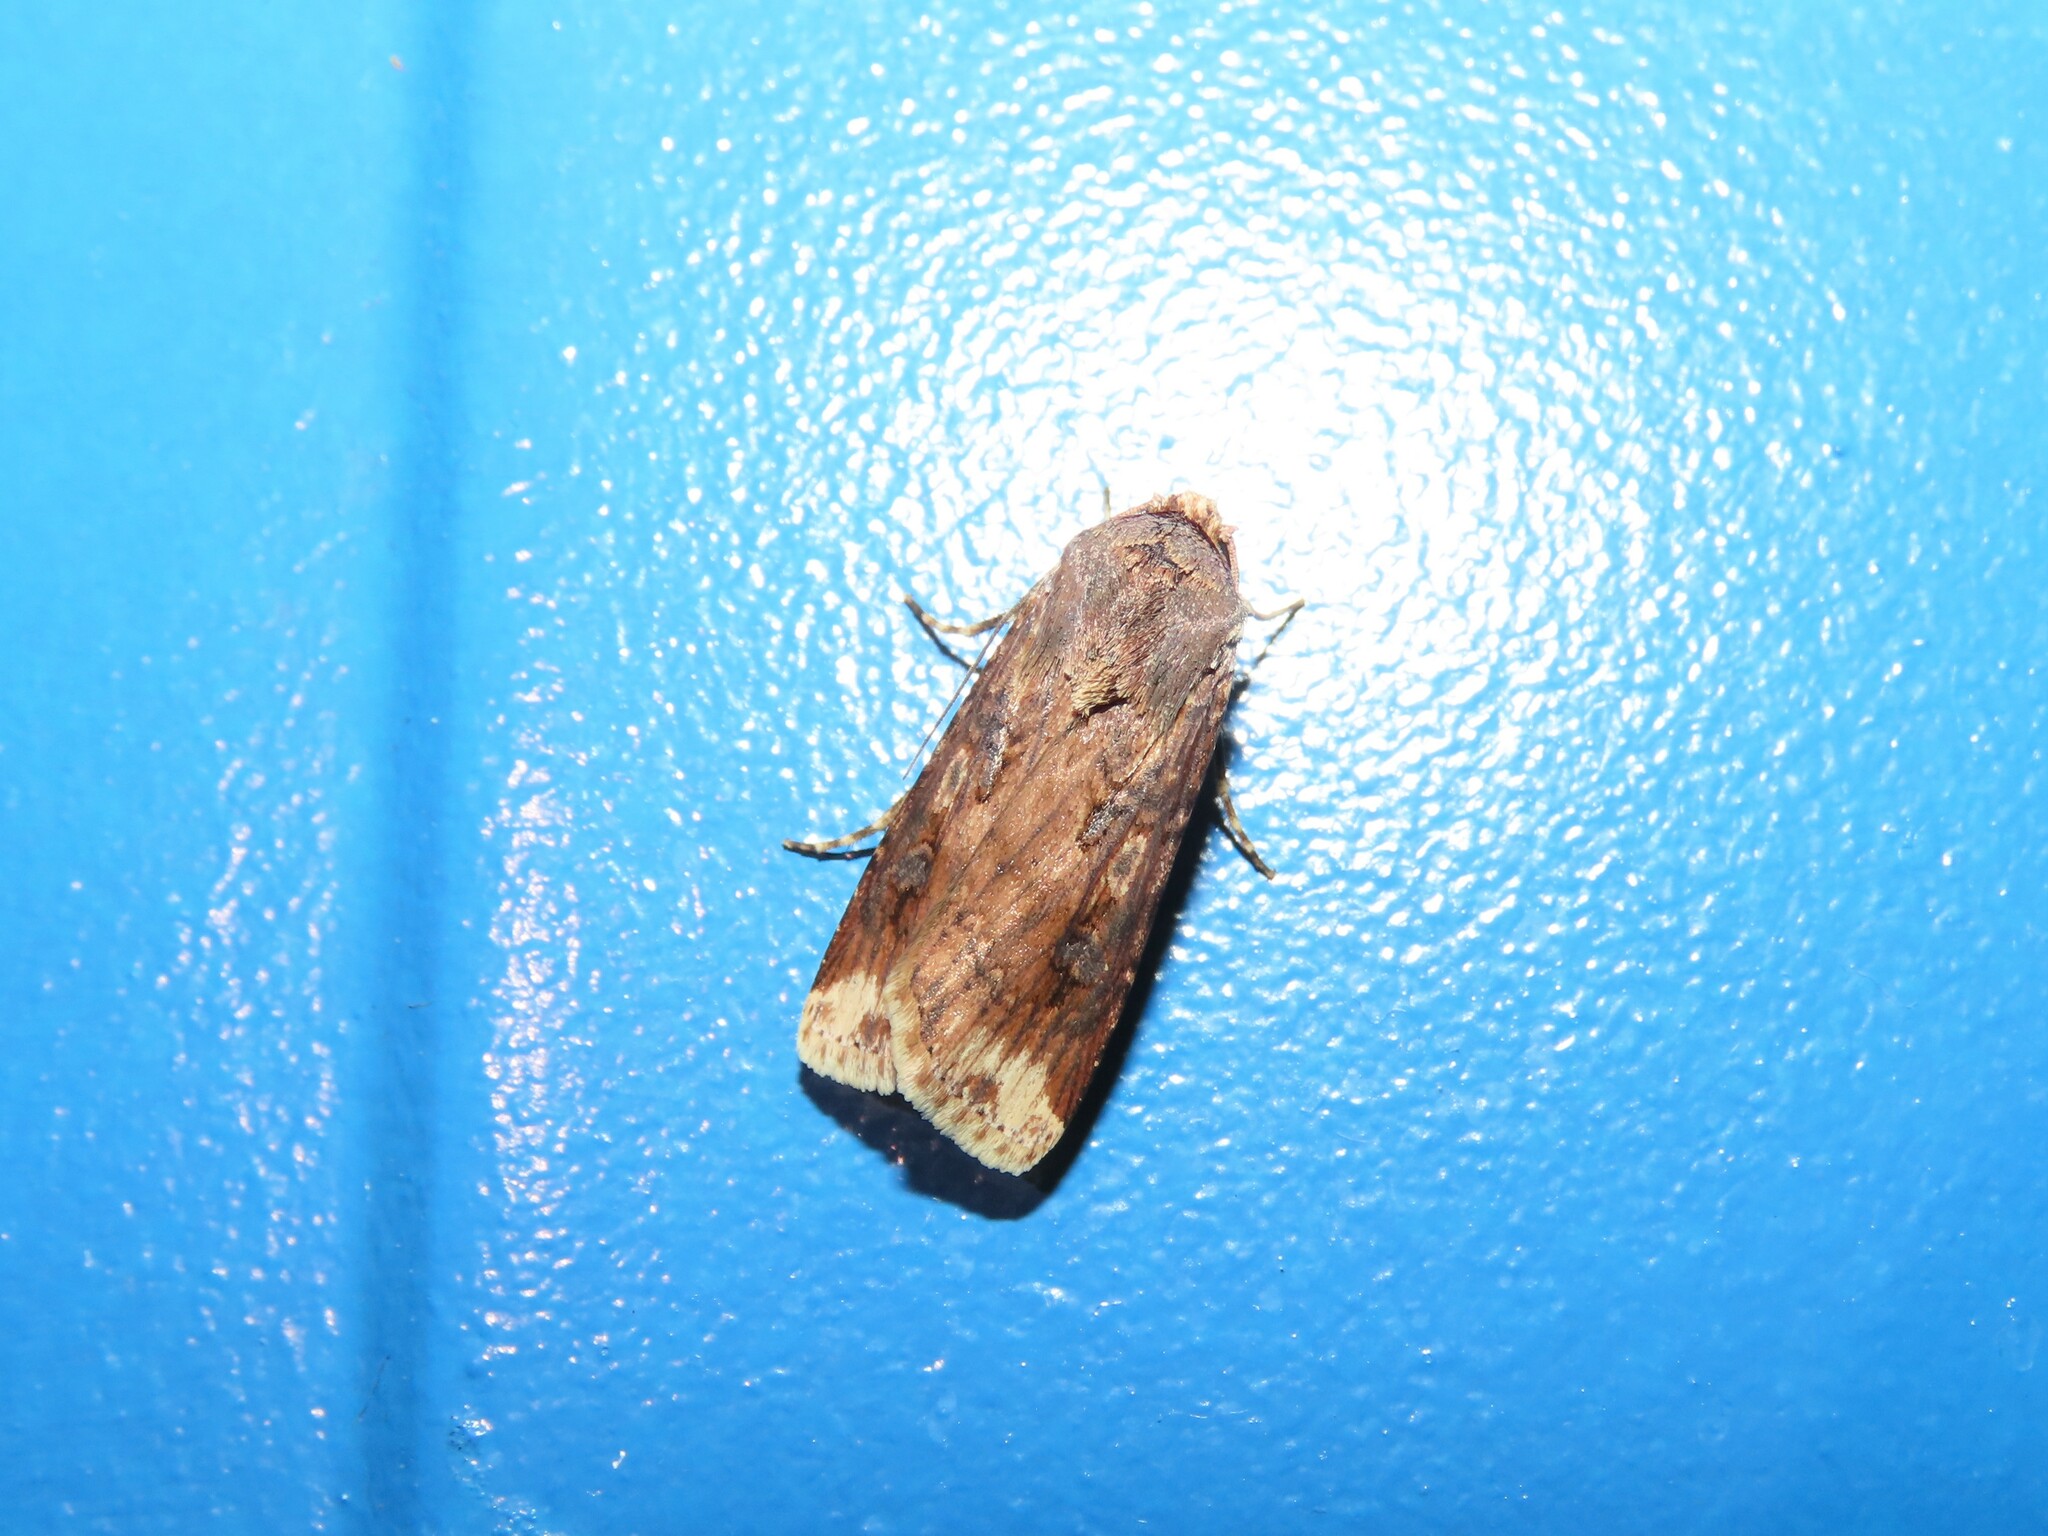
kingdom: Animalia
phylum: Arthropoda
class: Insecta
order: Lepidoptera
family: Noctuidae
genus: Agrotis
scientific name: Agrotis ipsilon
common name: Dark sword-grass
